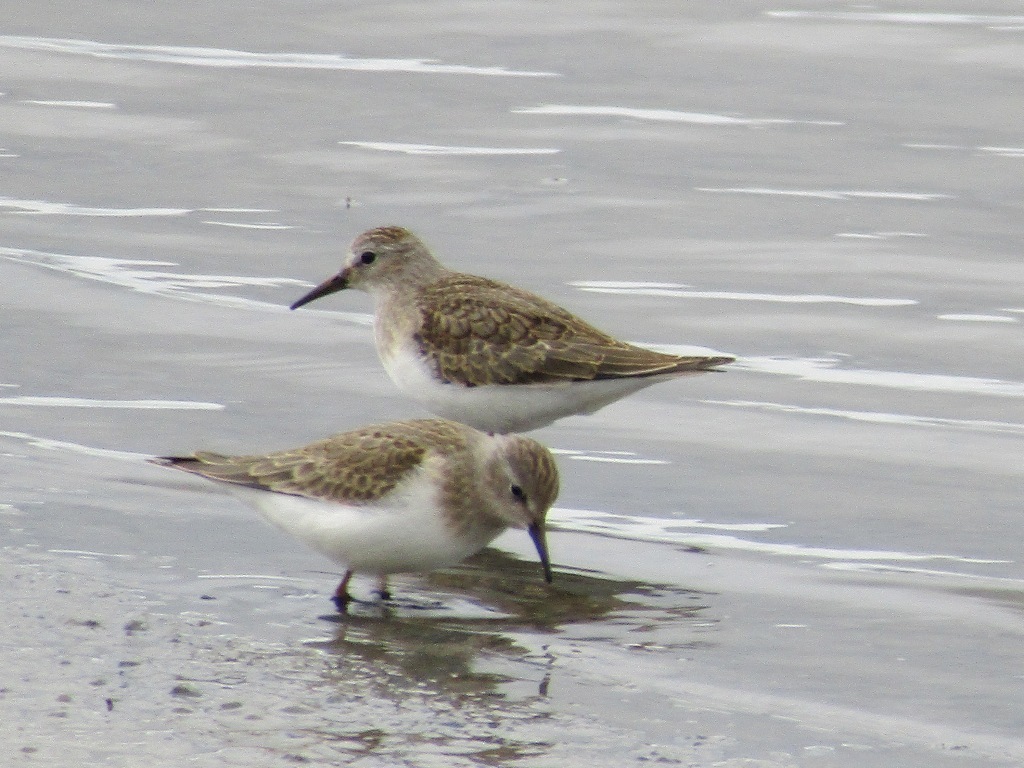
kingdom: Animalia
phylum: Chordata
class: Aves
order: Charadriiformes
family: Scolopacidae
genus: Calidris
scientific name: Calidris temminckii
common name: Temminck's stint
